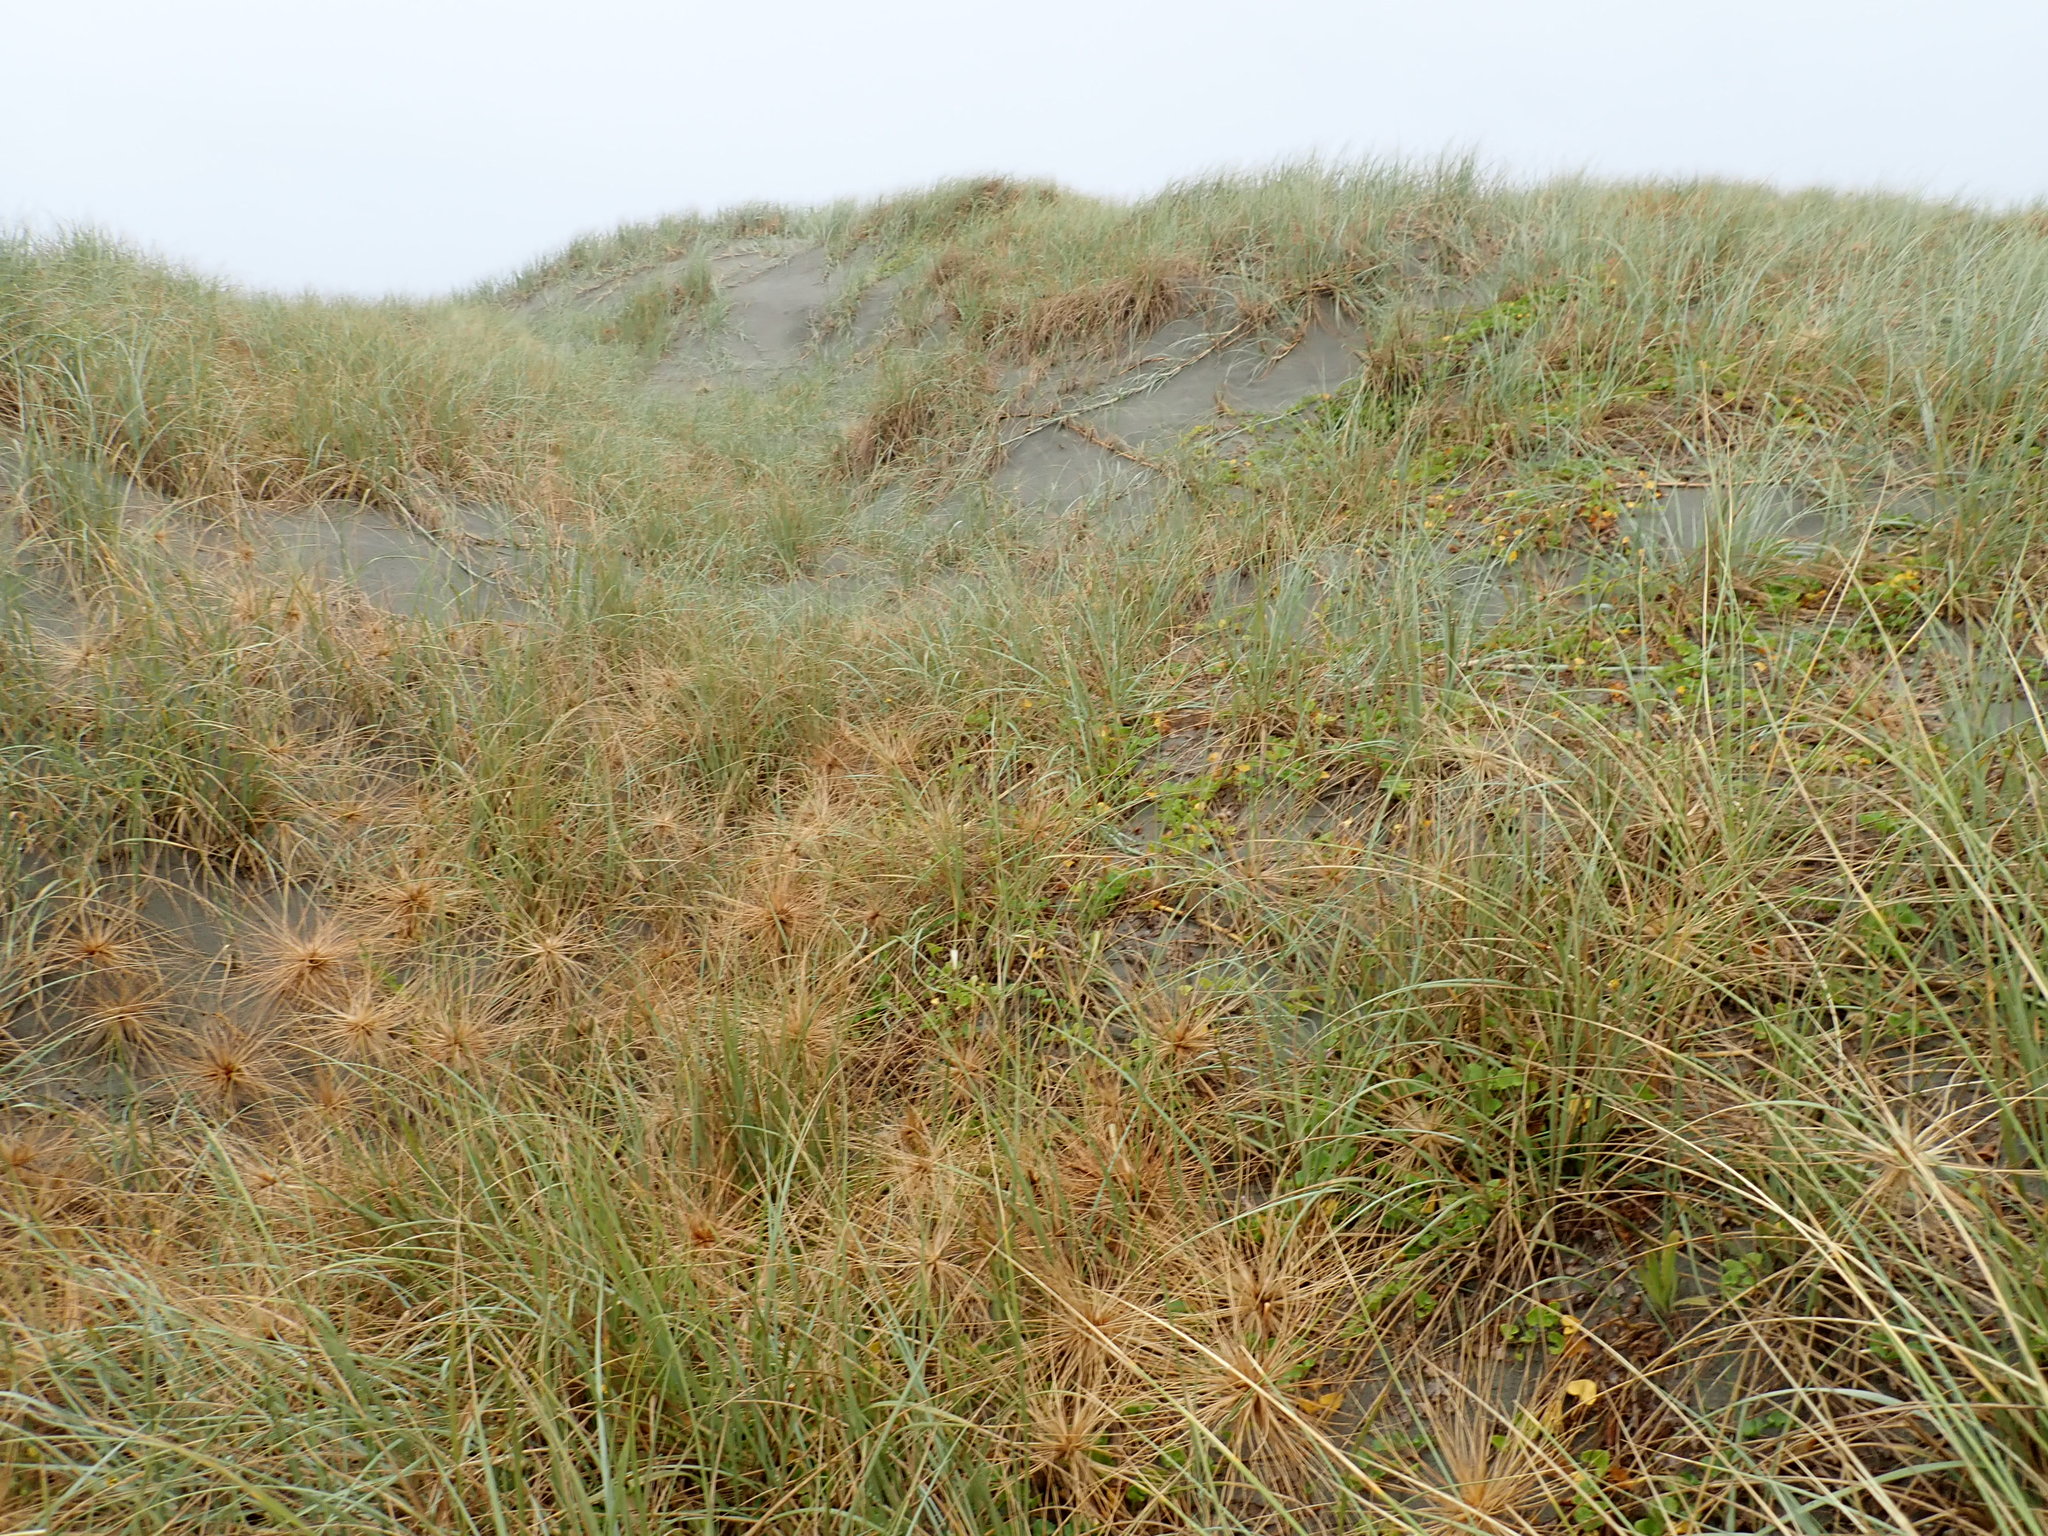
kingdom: Plantae
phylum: Tracheophyta
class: Magnoliopsida
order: Solanales
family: Convolvulaceae
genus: Calystegia
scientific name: Calystegia soldanella
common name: Sea bindweed
